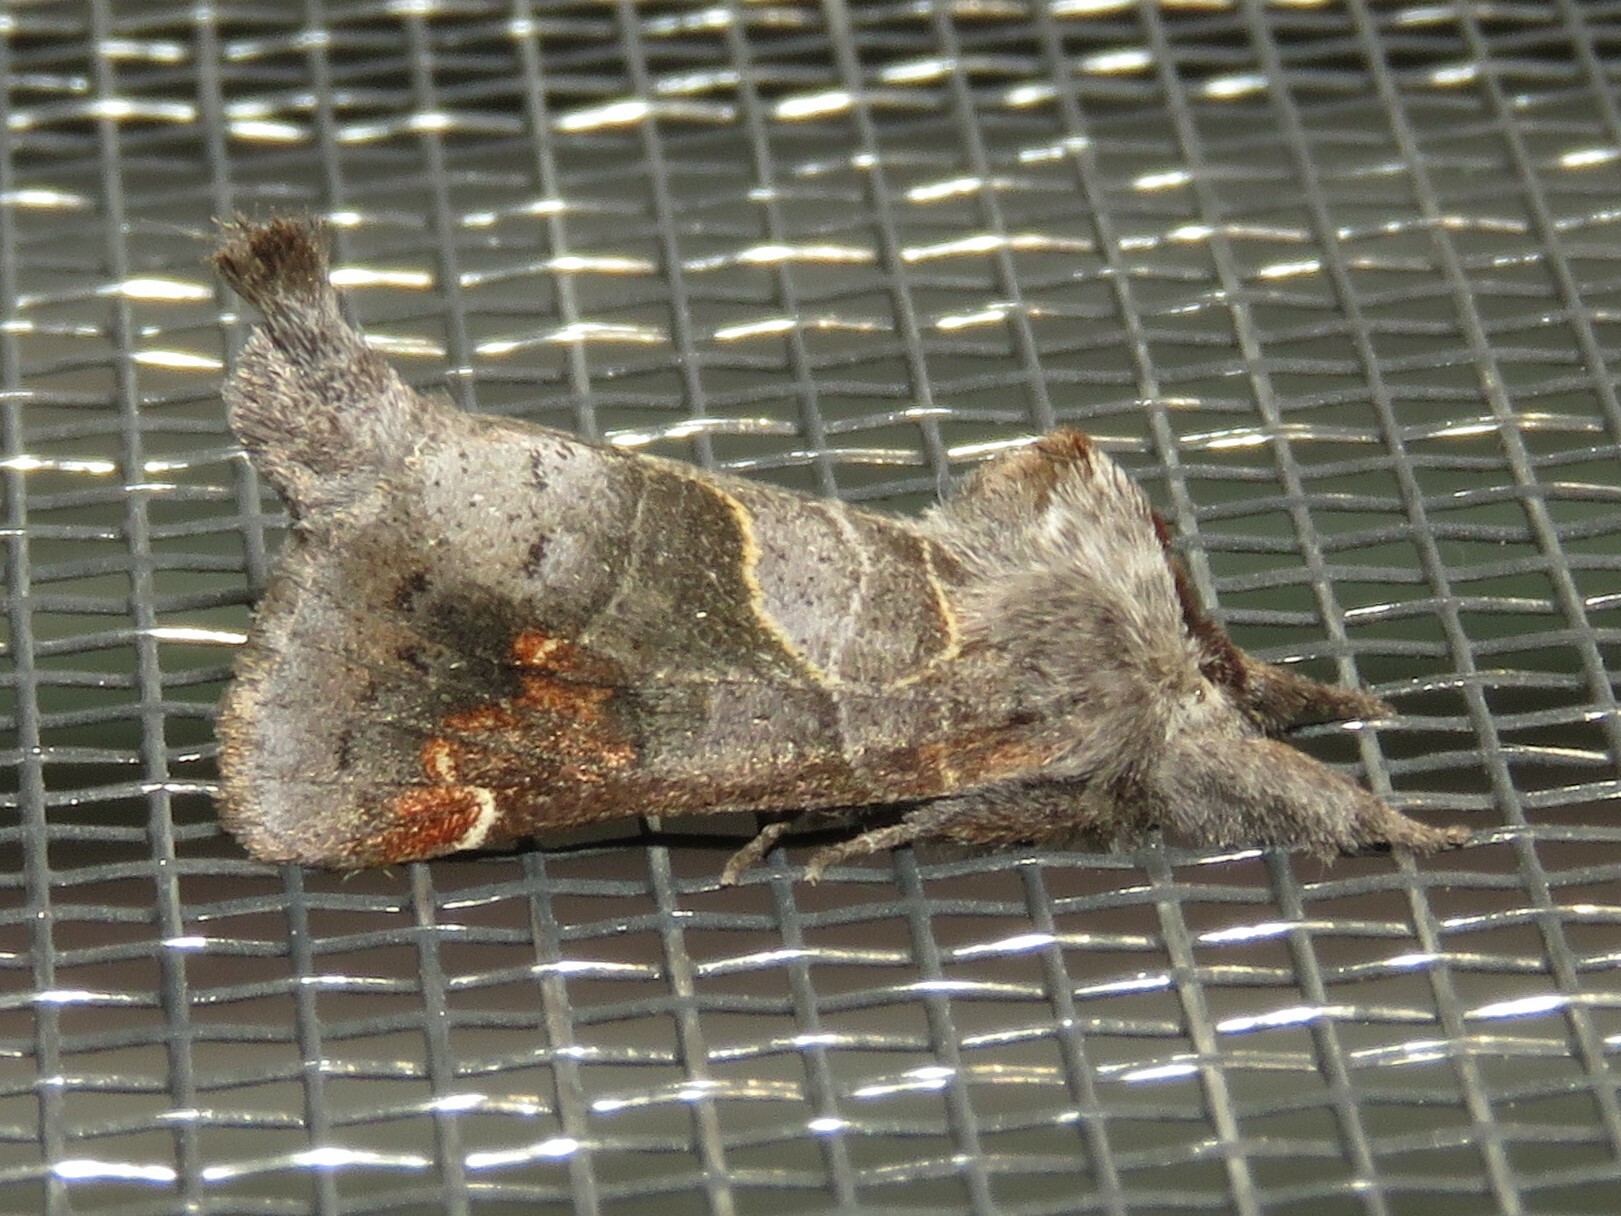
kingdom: Animalia
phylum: Arthropoda
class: Insecta
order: Lepidoptera
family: Notodontidae
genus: Clostera
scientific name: Clostera apicalis
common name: Apical prominent
